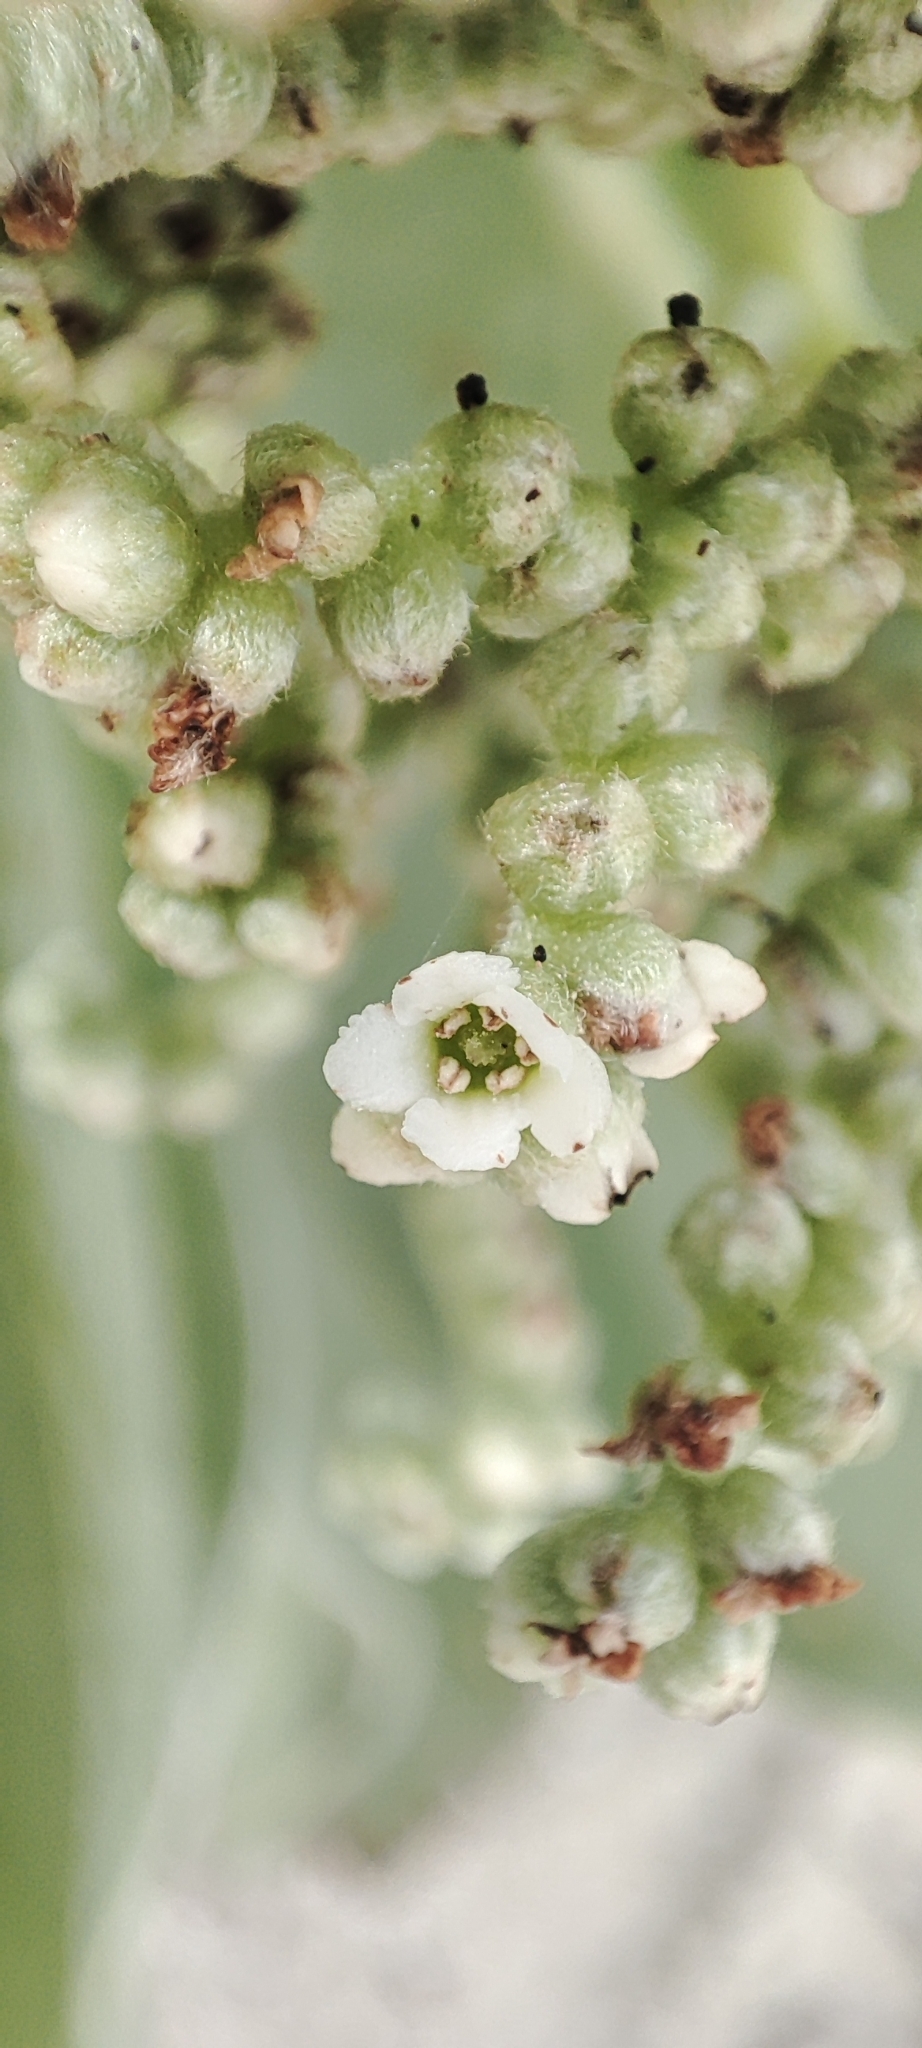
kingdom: Plantae
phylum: Tracheophyta
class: Magnoliopsida
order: Boraginales
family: Heliotropiaceae
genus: Heliotropium
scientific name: Heliotropium velutinum
